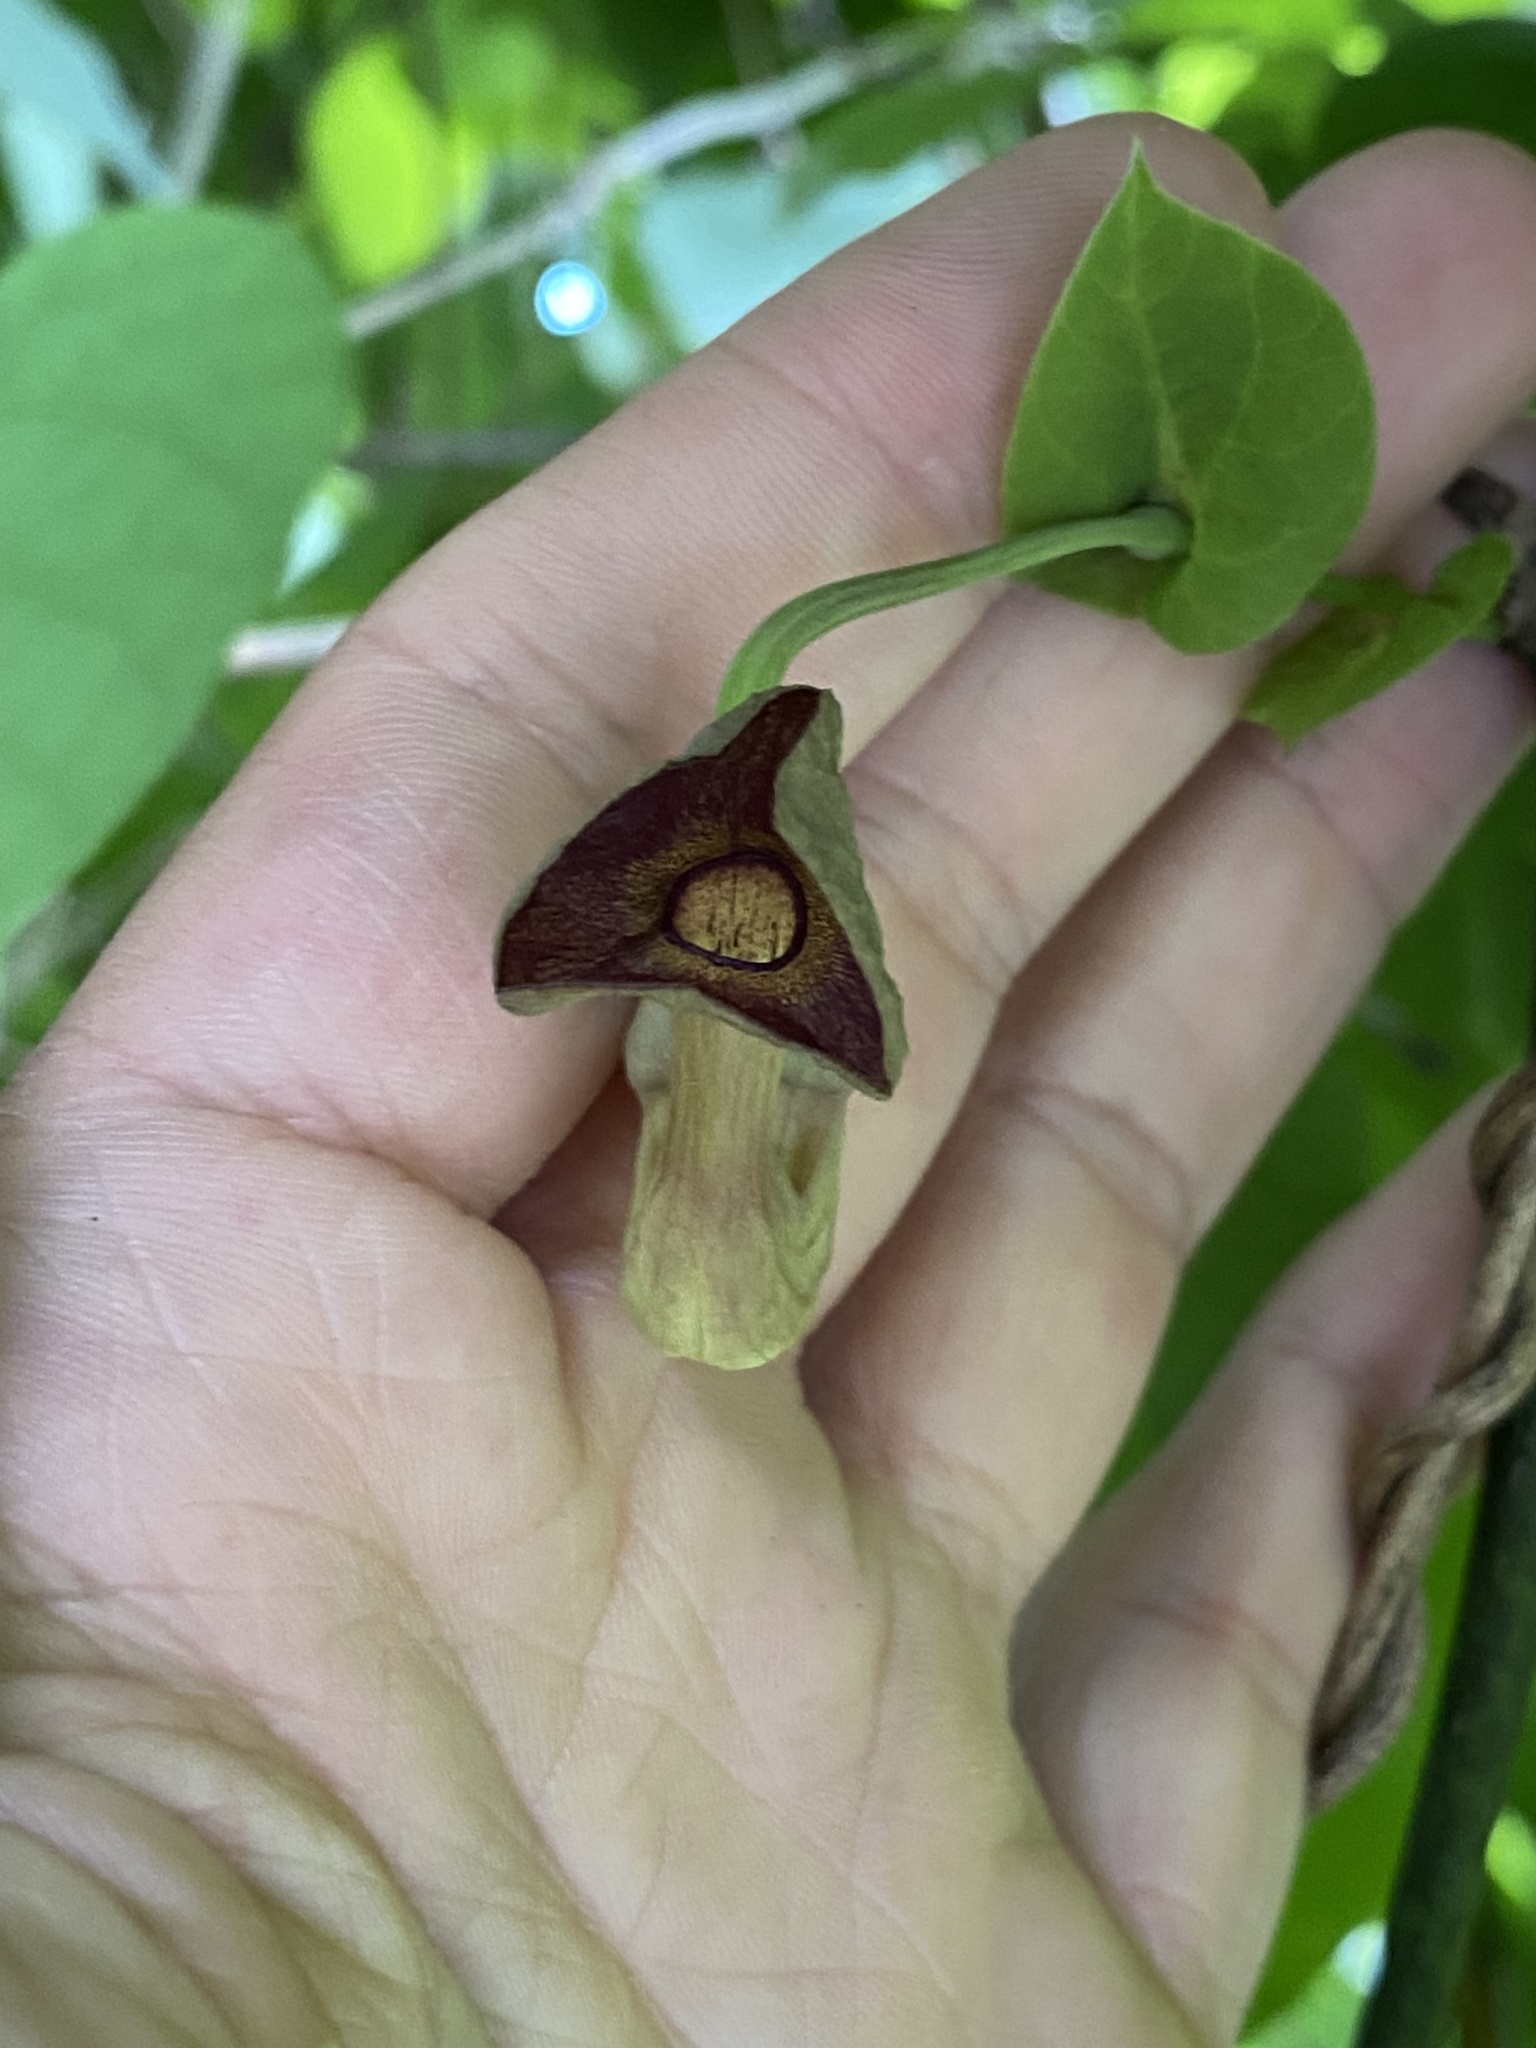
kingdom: Plantae
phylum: Tracheophyta
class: Magnoliopsida
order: Piperales
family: Aristolochiaceae
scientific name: Aristolochiaceae
